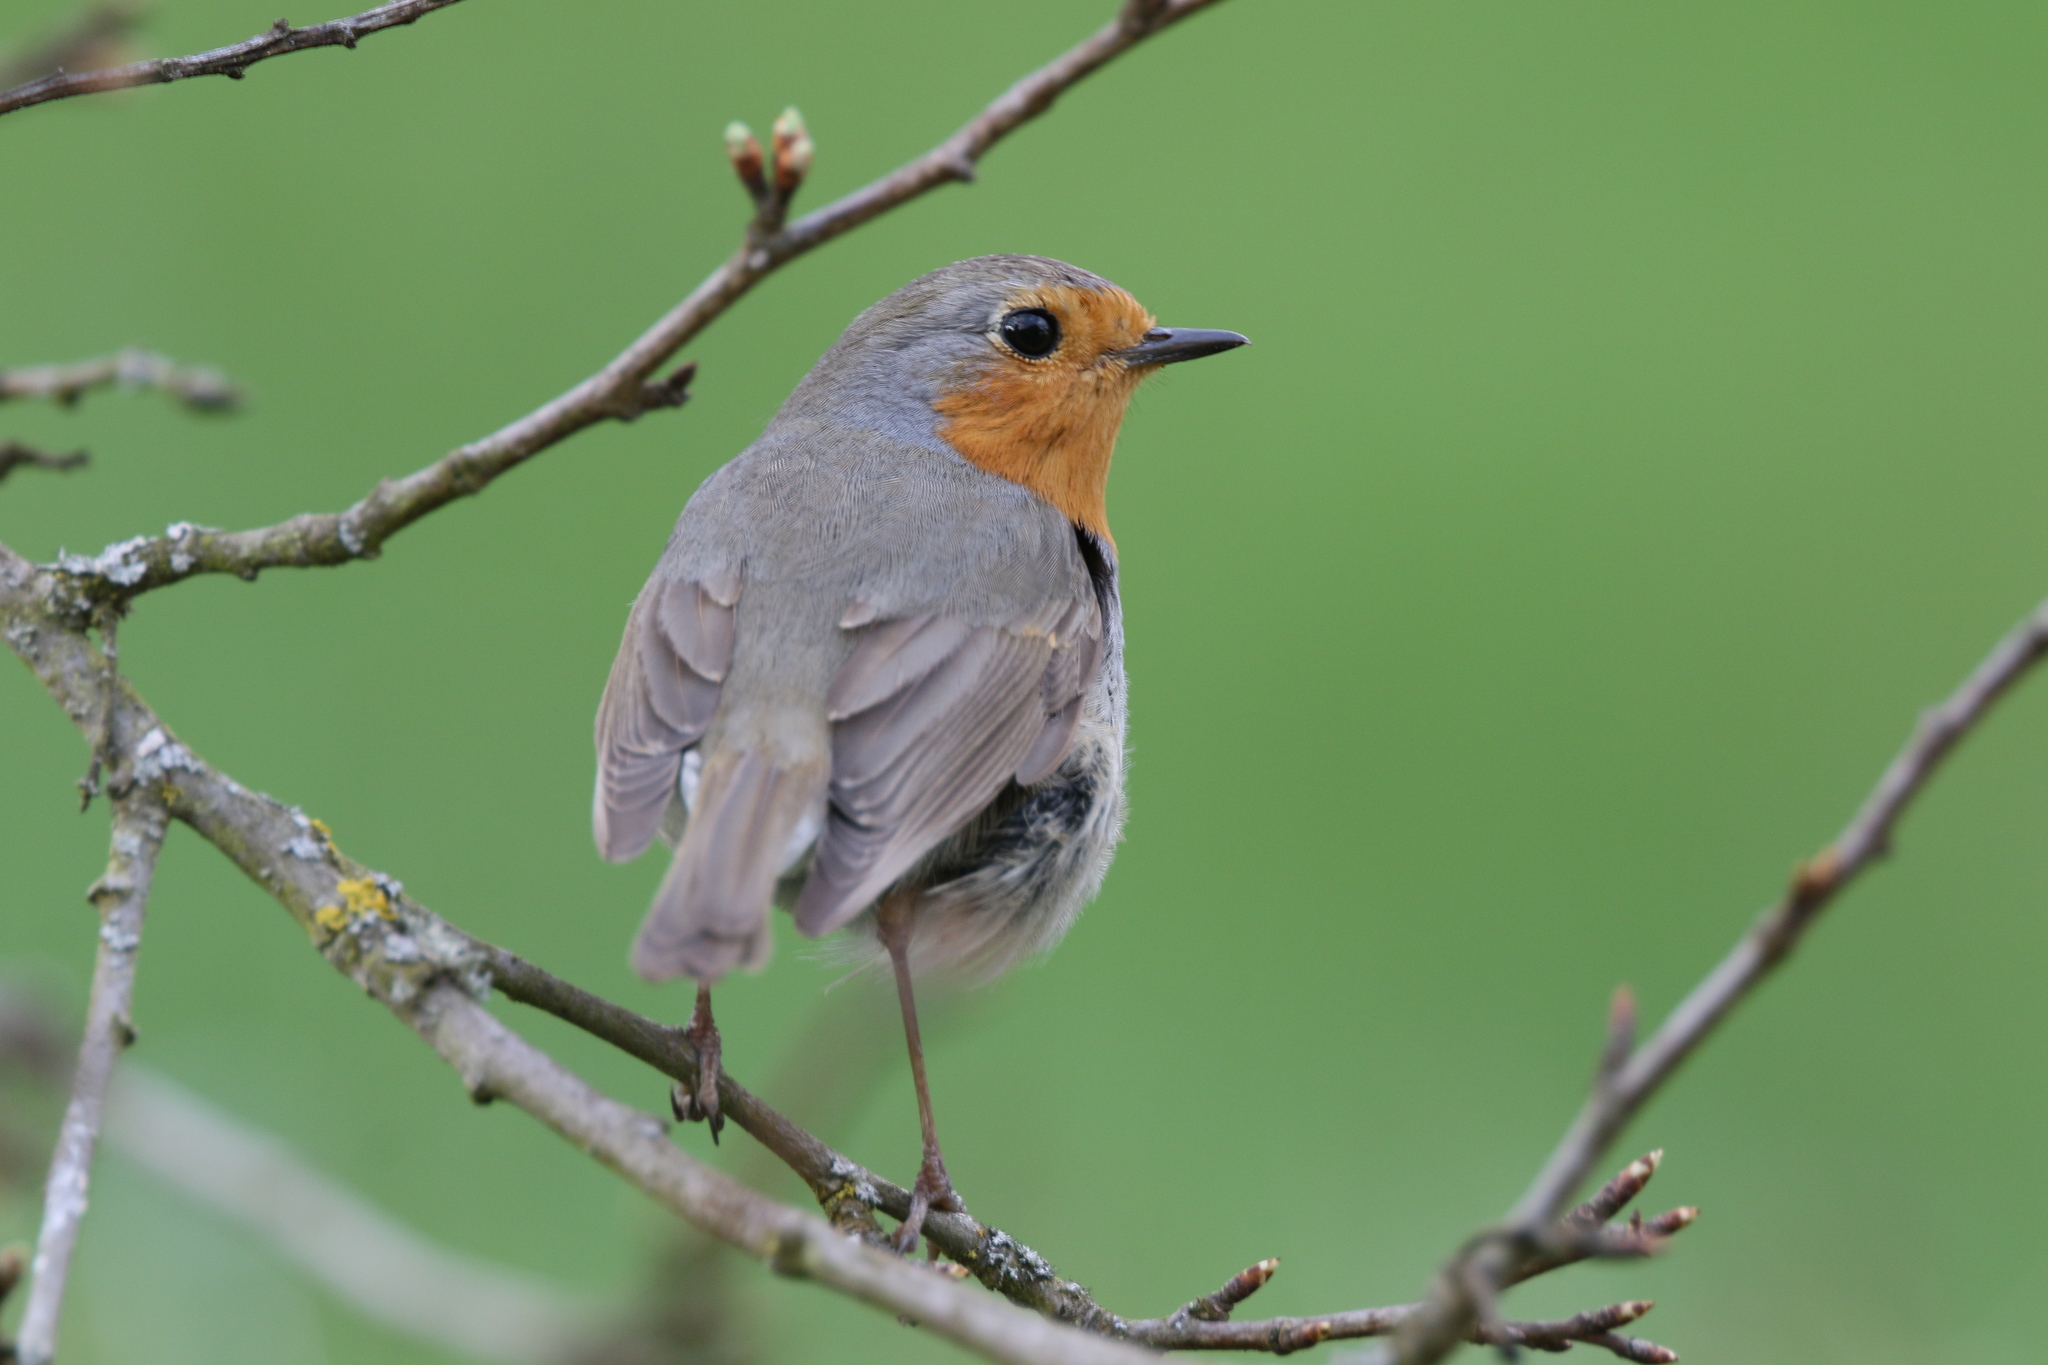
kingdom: Animalia
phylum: Chordata
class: Aves
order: Passeriformes
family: Muscicapidae
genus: Erithacus
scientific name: Erithacus rubecula
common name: European robin
